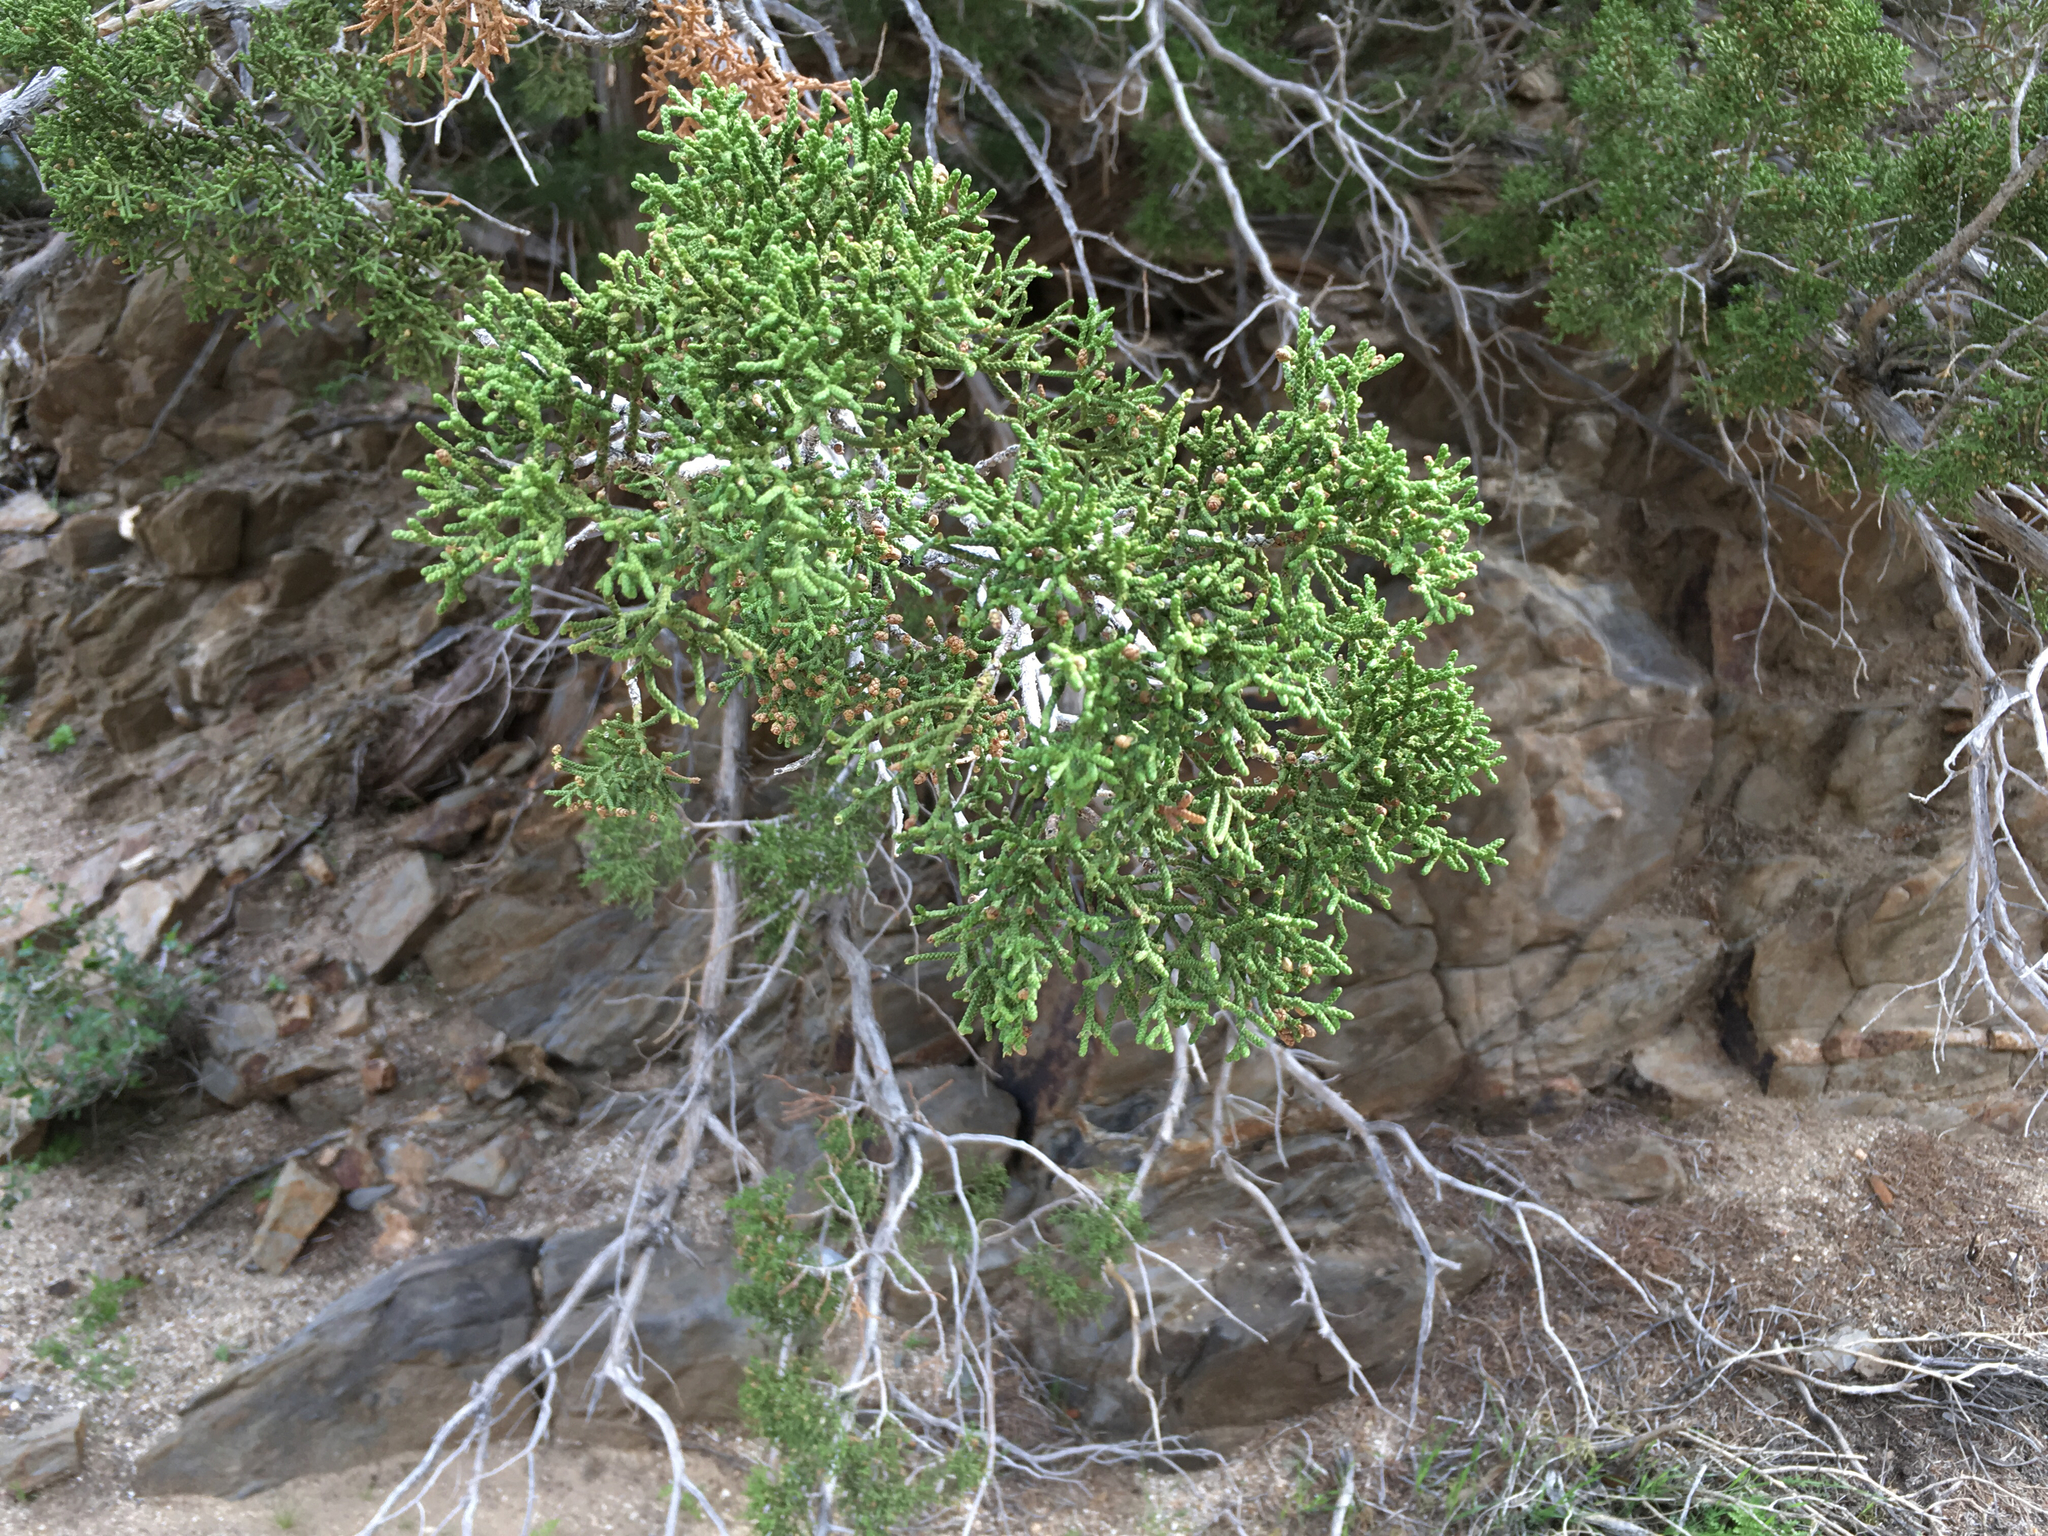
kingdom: Plantae
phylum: Tracheophyta
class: Pinopsida
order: Pinales
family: Cupressaceae
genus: Juniperus
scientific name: Juniperus californica
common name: California juniper
